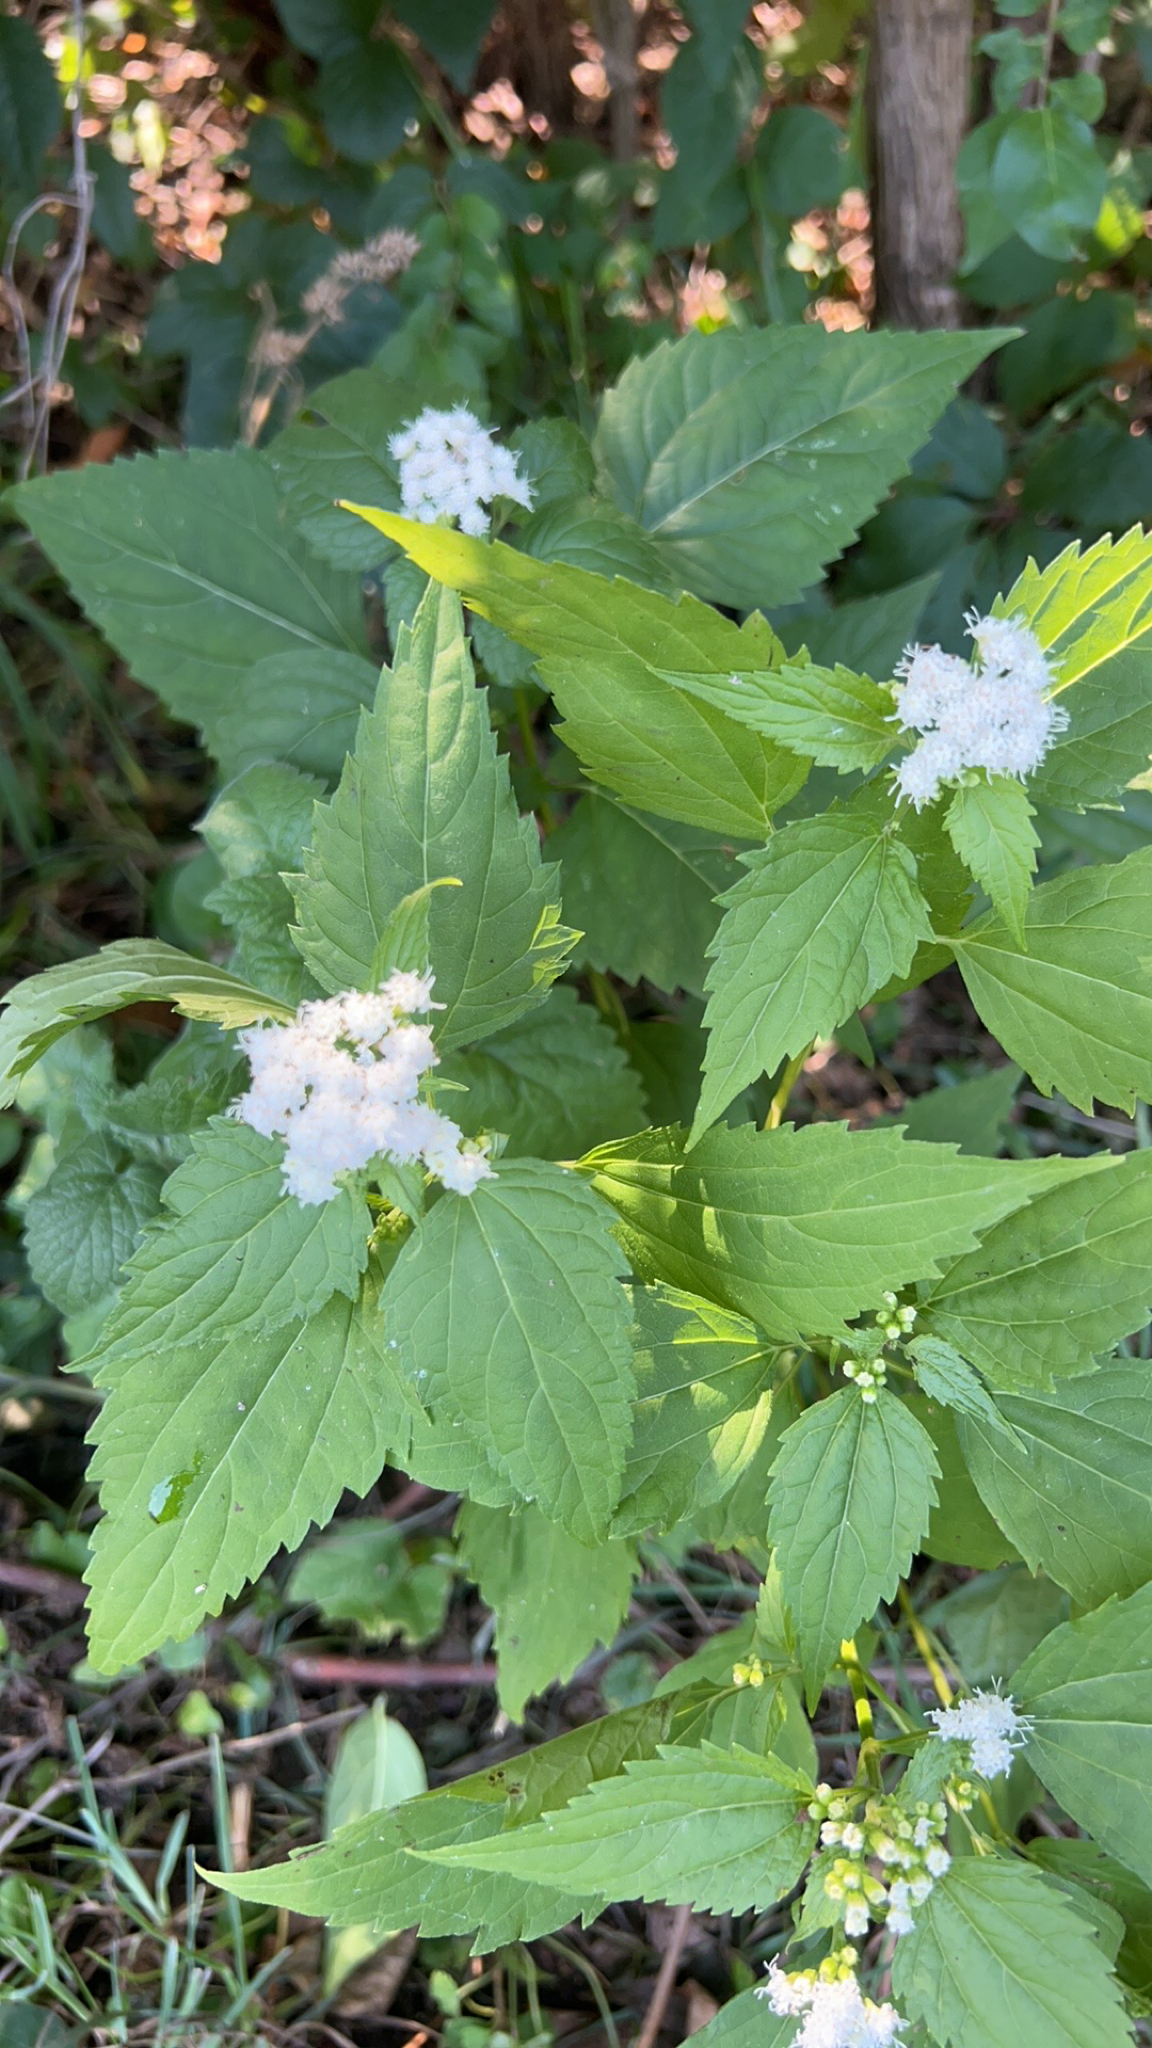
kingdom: Plantae
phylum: Tracheophyta
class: Magnoliopsida
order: Asterales
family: Asteraceae
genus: Ageratina
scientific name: Ageratina altissima
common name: White snakeroot
